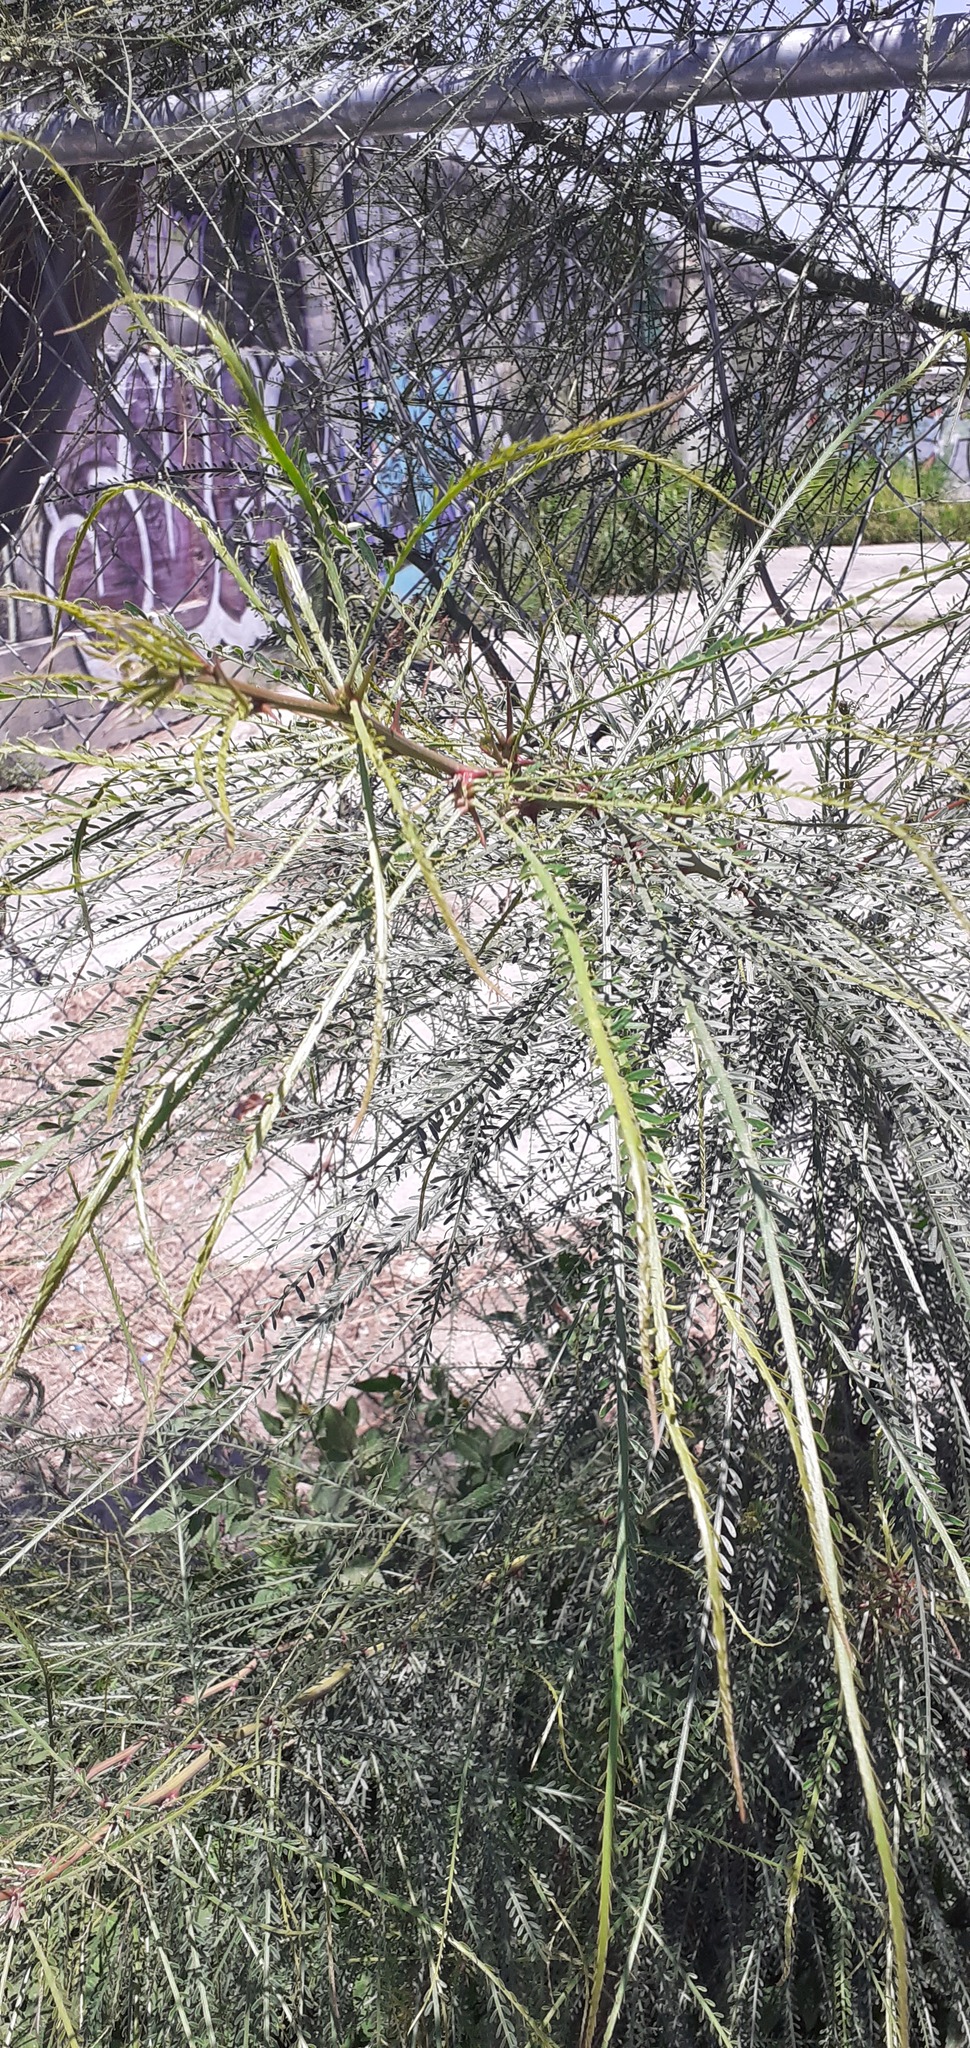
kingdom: Plantae
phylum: Tracheophyta
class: Magnoliopsida
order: Fabales
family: Fabaceae
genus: Parkinsonia
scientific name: Parkinsonia aculeata
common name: Jerusalem thorn
